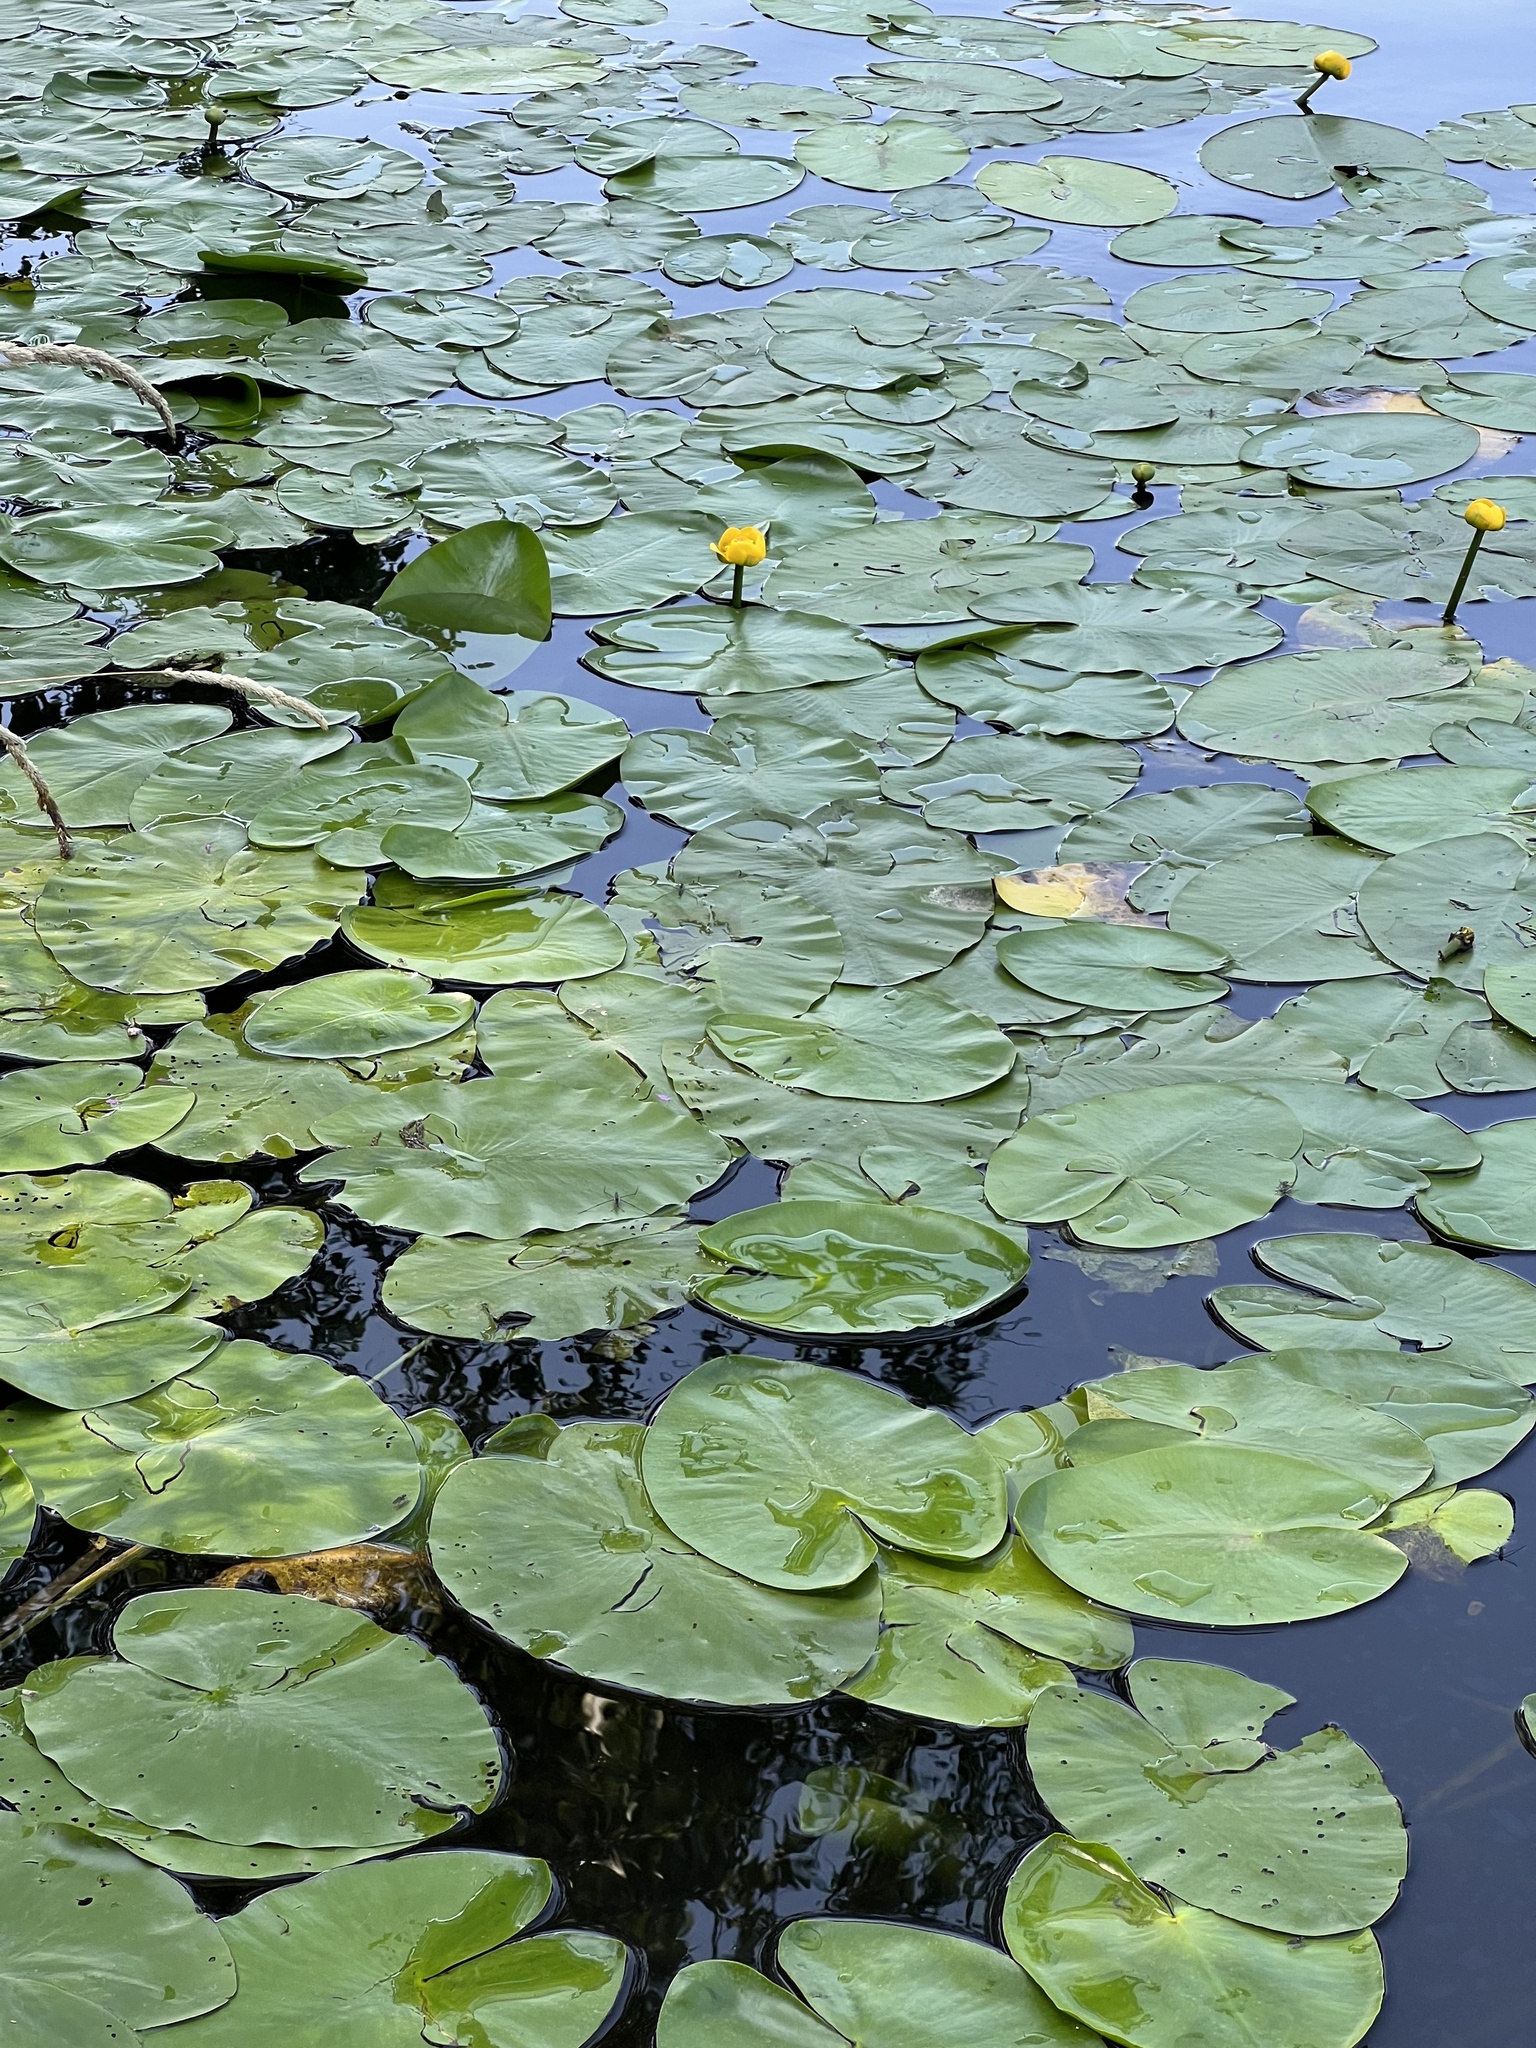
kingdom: Plantae
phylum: Tracheophyta
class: Magnoliopsida
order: Nymphaeales
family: Nymphaeaceae
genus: Nuphar
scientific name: Nuphar lutea
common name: Yellow water-lily
